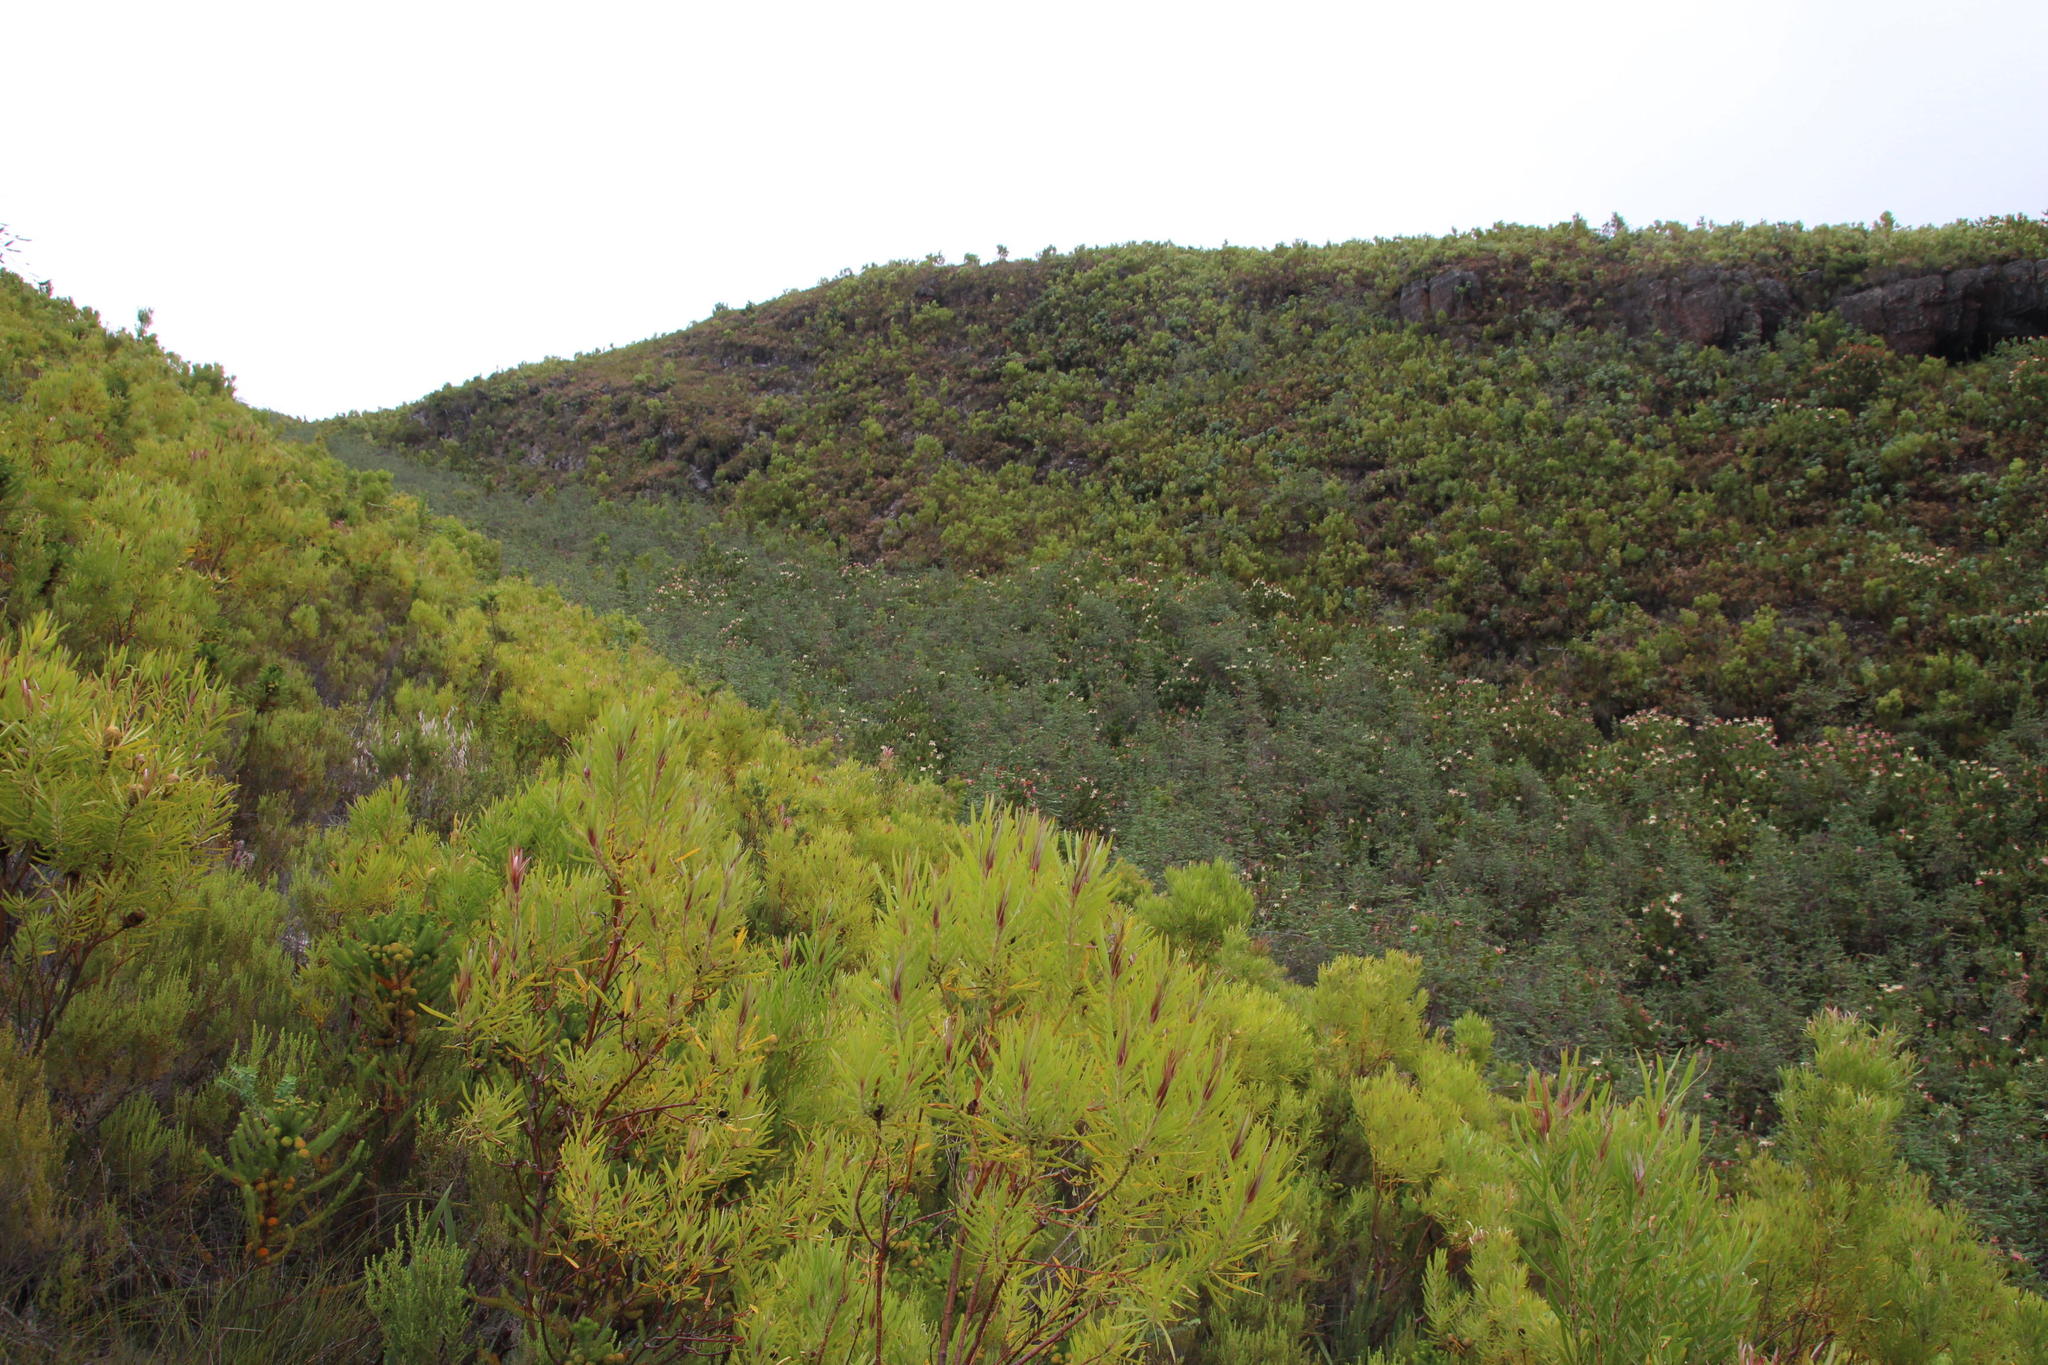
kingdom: Plantae
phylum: Tracheophyta
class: Magnoliopsida
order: Proteales
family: Proteaceae
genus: Leucadendron
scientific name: Leucadendron eucalyptifolium
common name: Gum-leaved conebush
